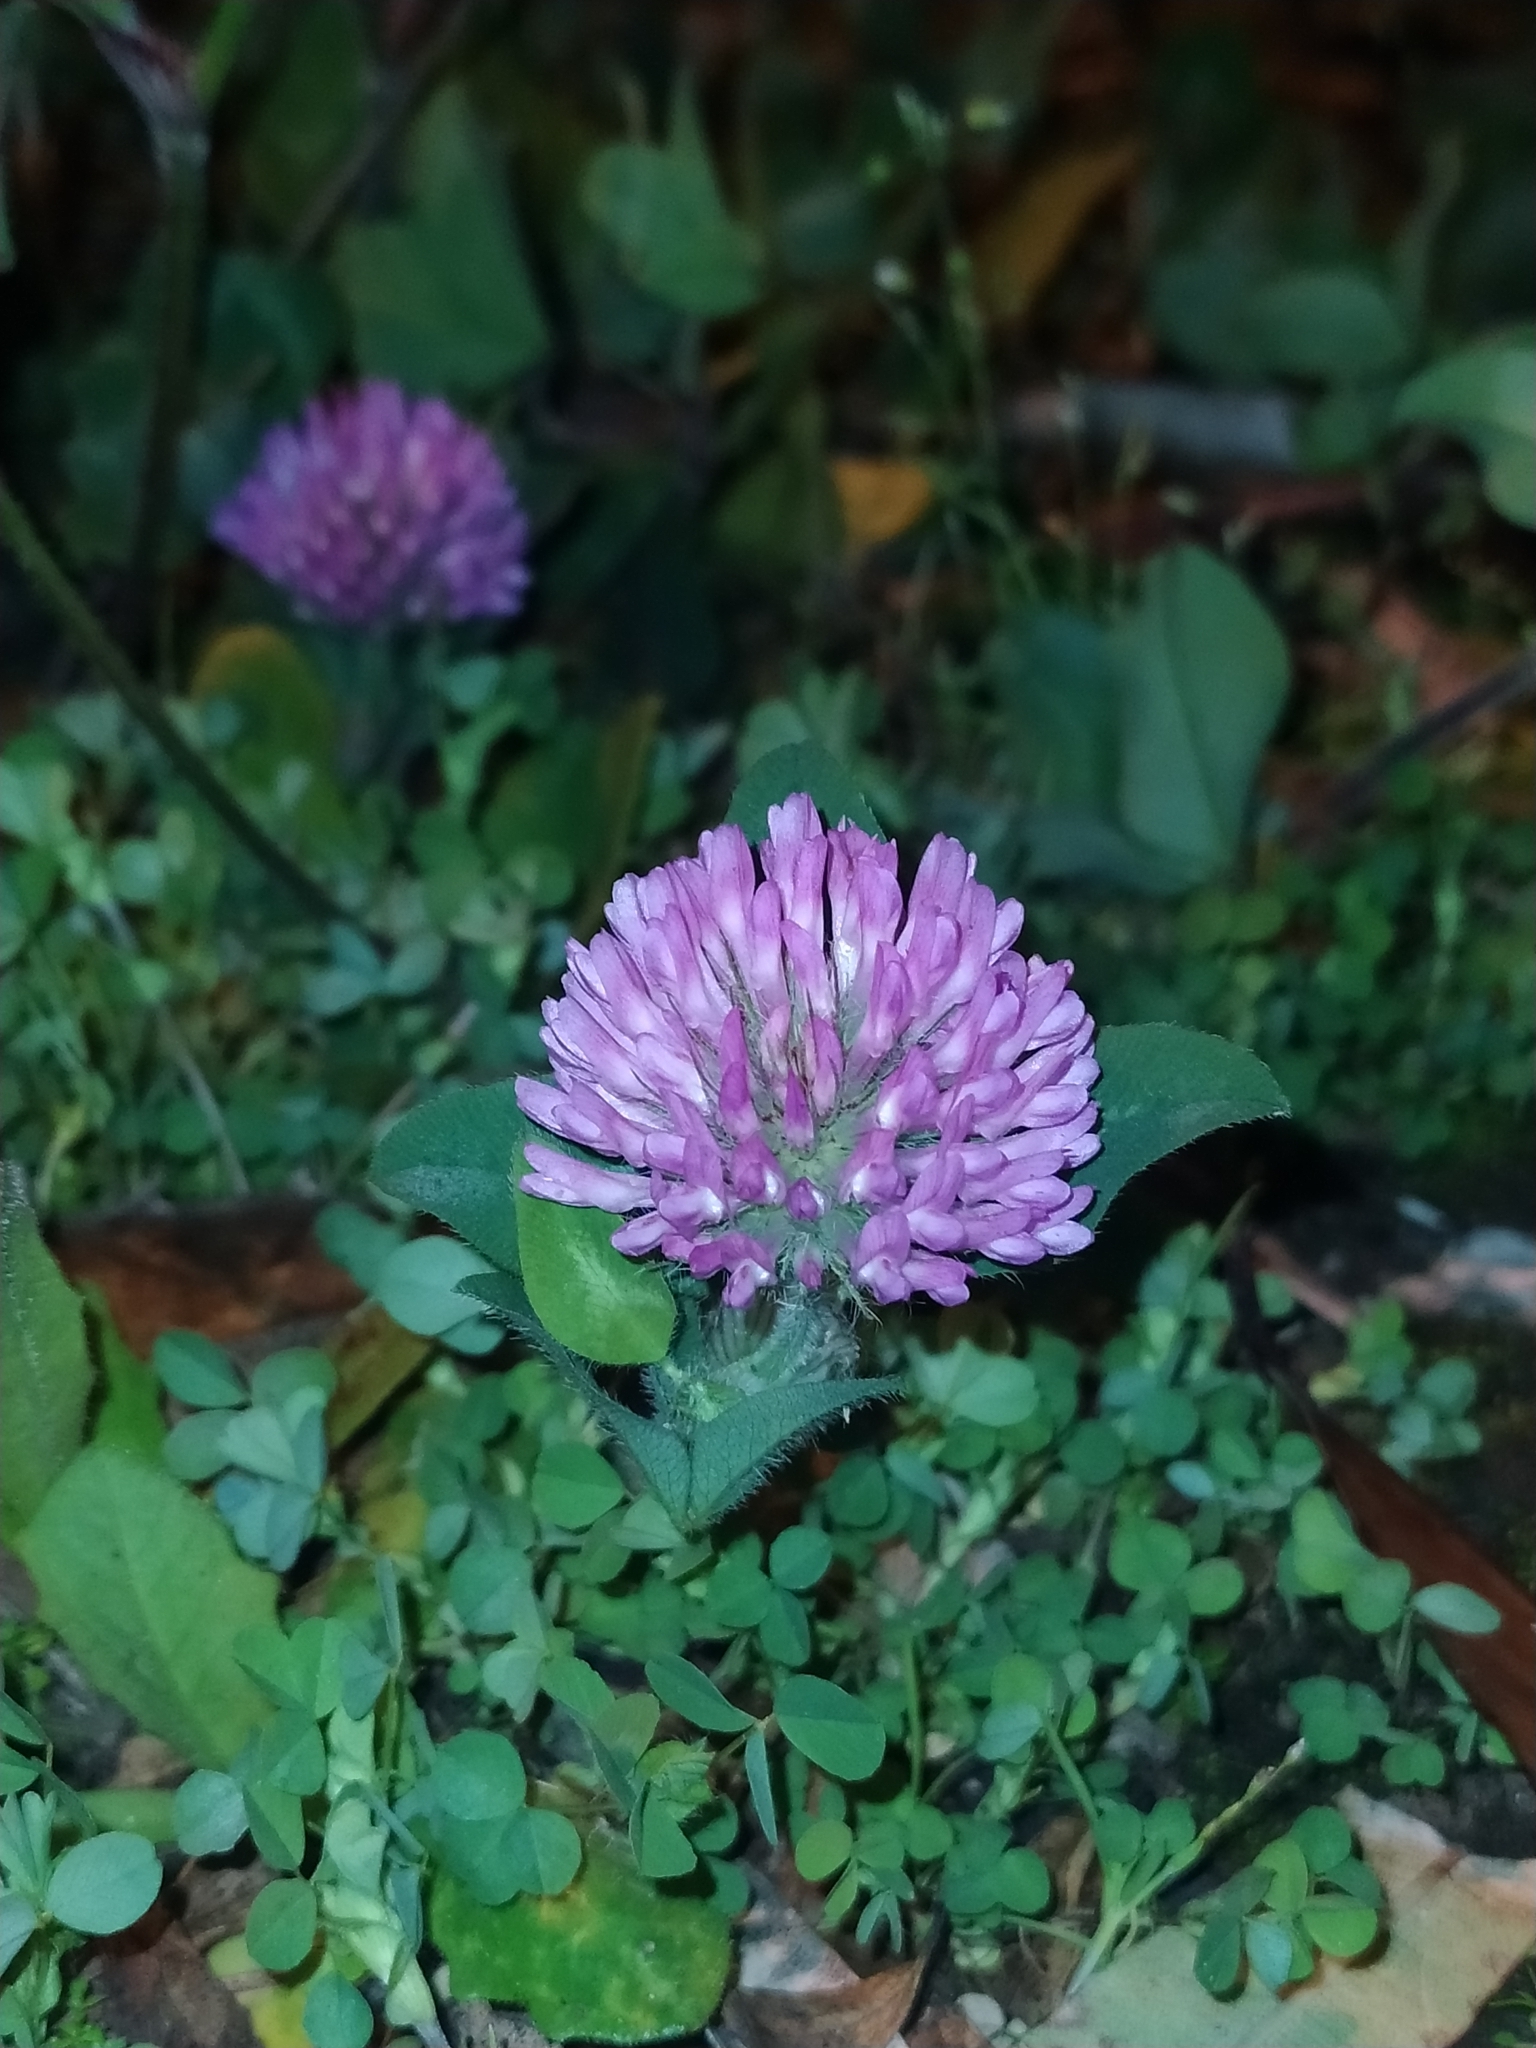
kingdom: Plantae
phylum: Tracheophyta
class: Magnoliopsida
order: Fabales
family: Fabaceae
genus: Trifolium
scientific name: Trifolium pratense
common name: Red clover
